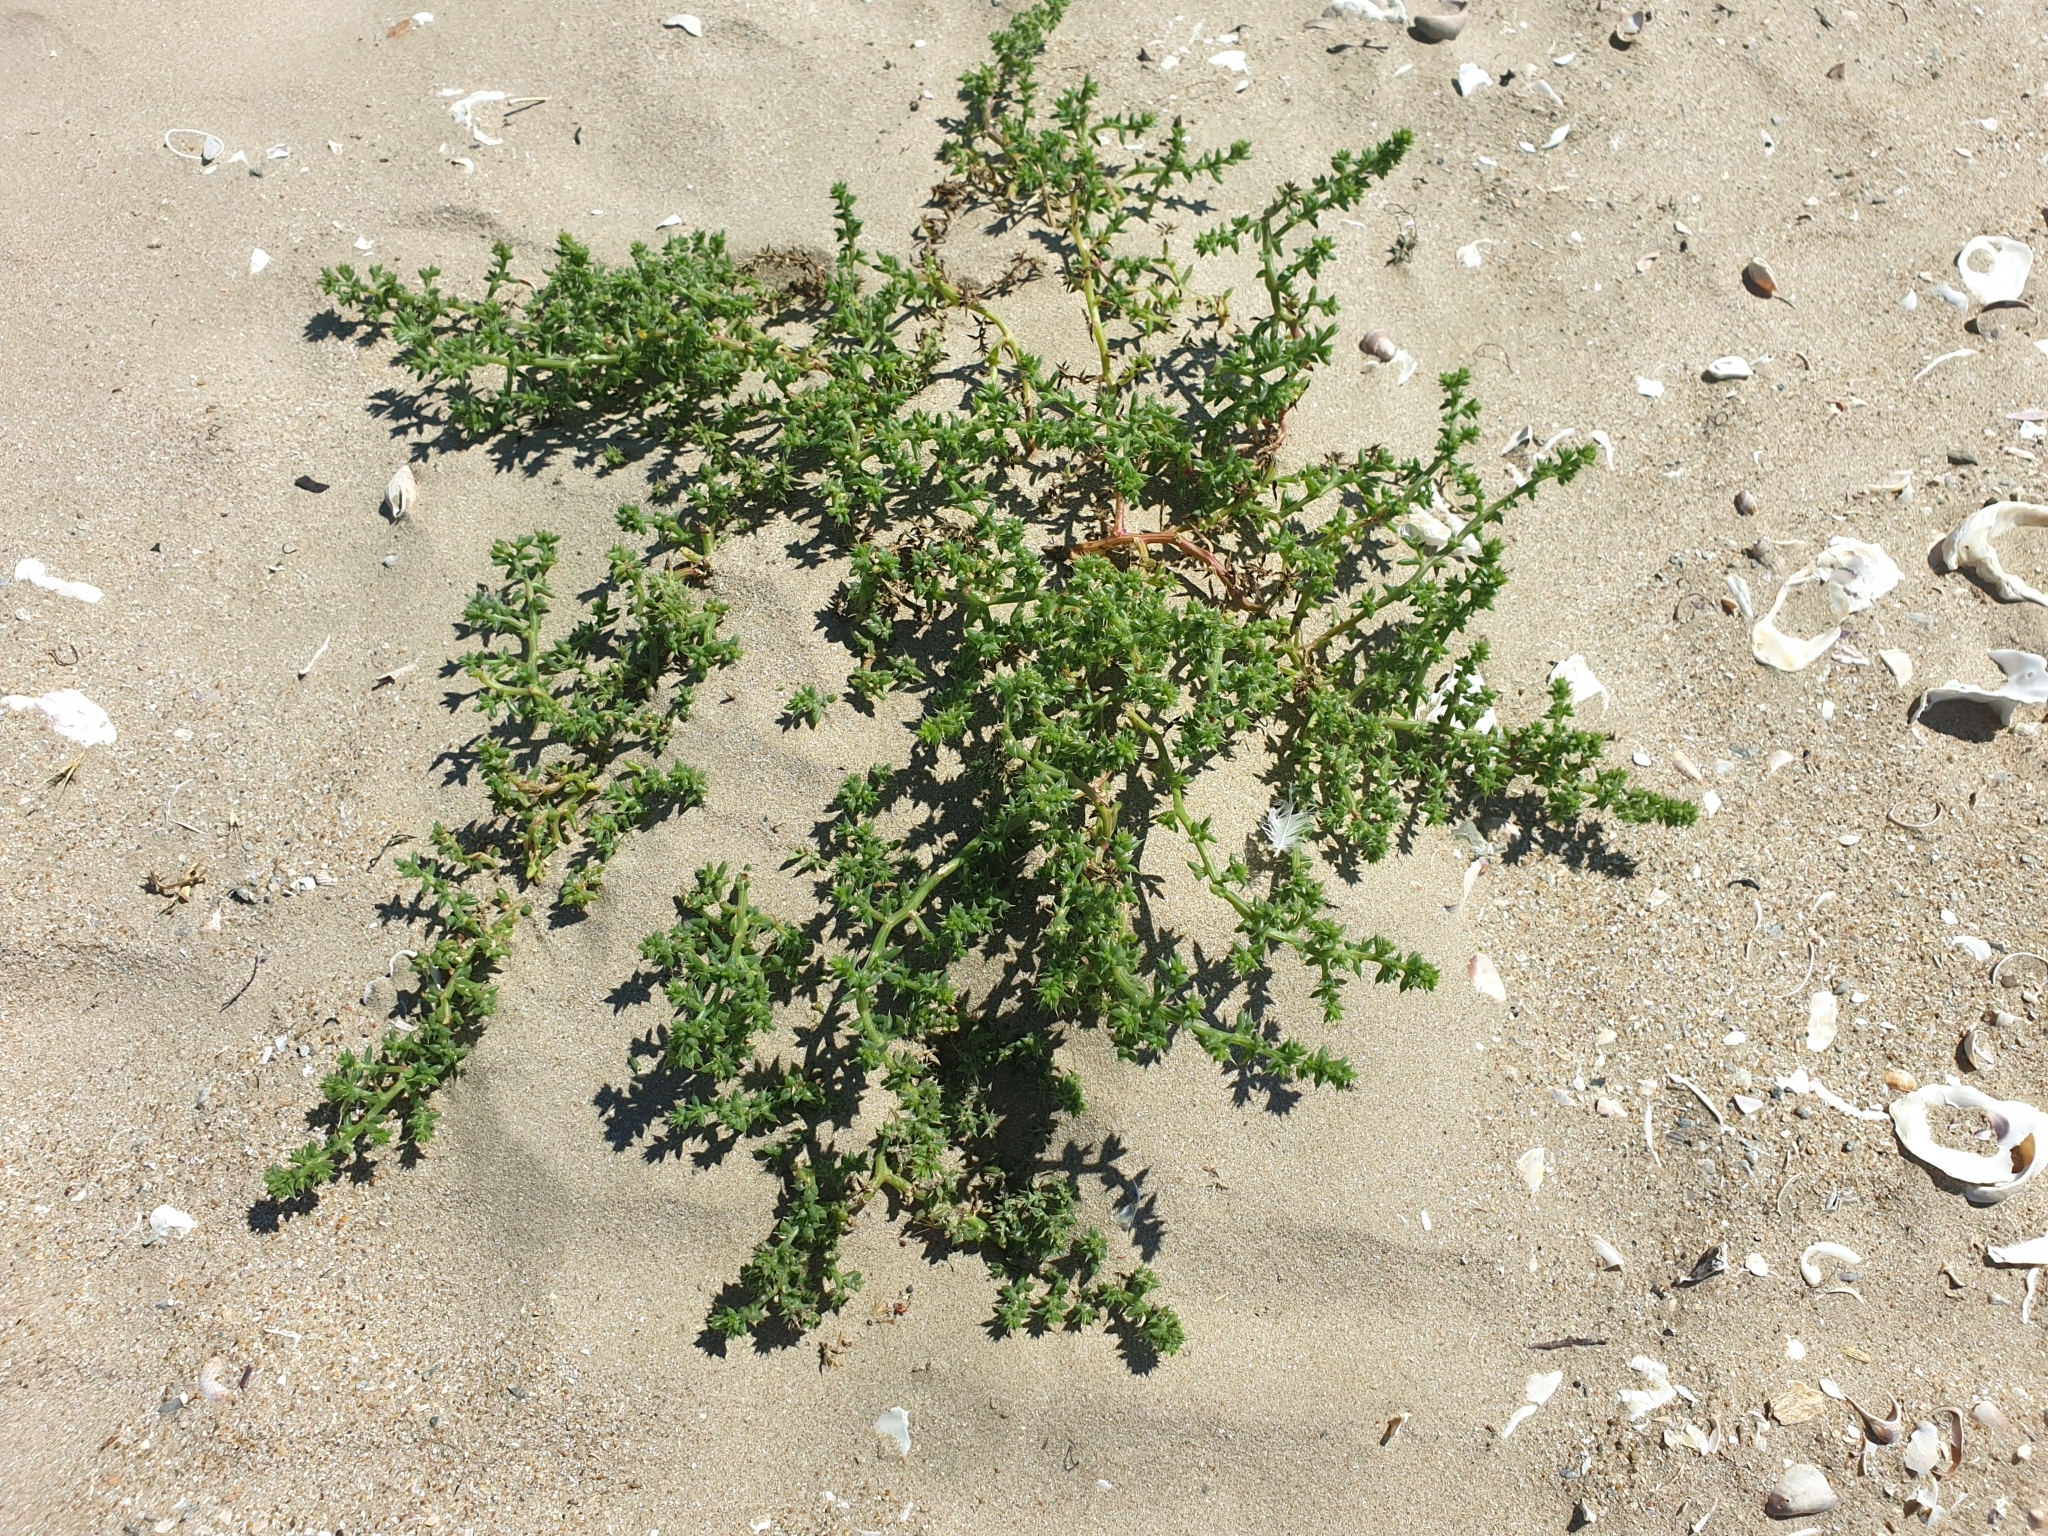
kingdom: Plantae
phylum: Tracheophyta
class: Magnoliopsida
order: Caryophyllales
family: Amaranthaceae
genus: Salsola
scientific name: Salsola kali
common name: Saltwort
